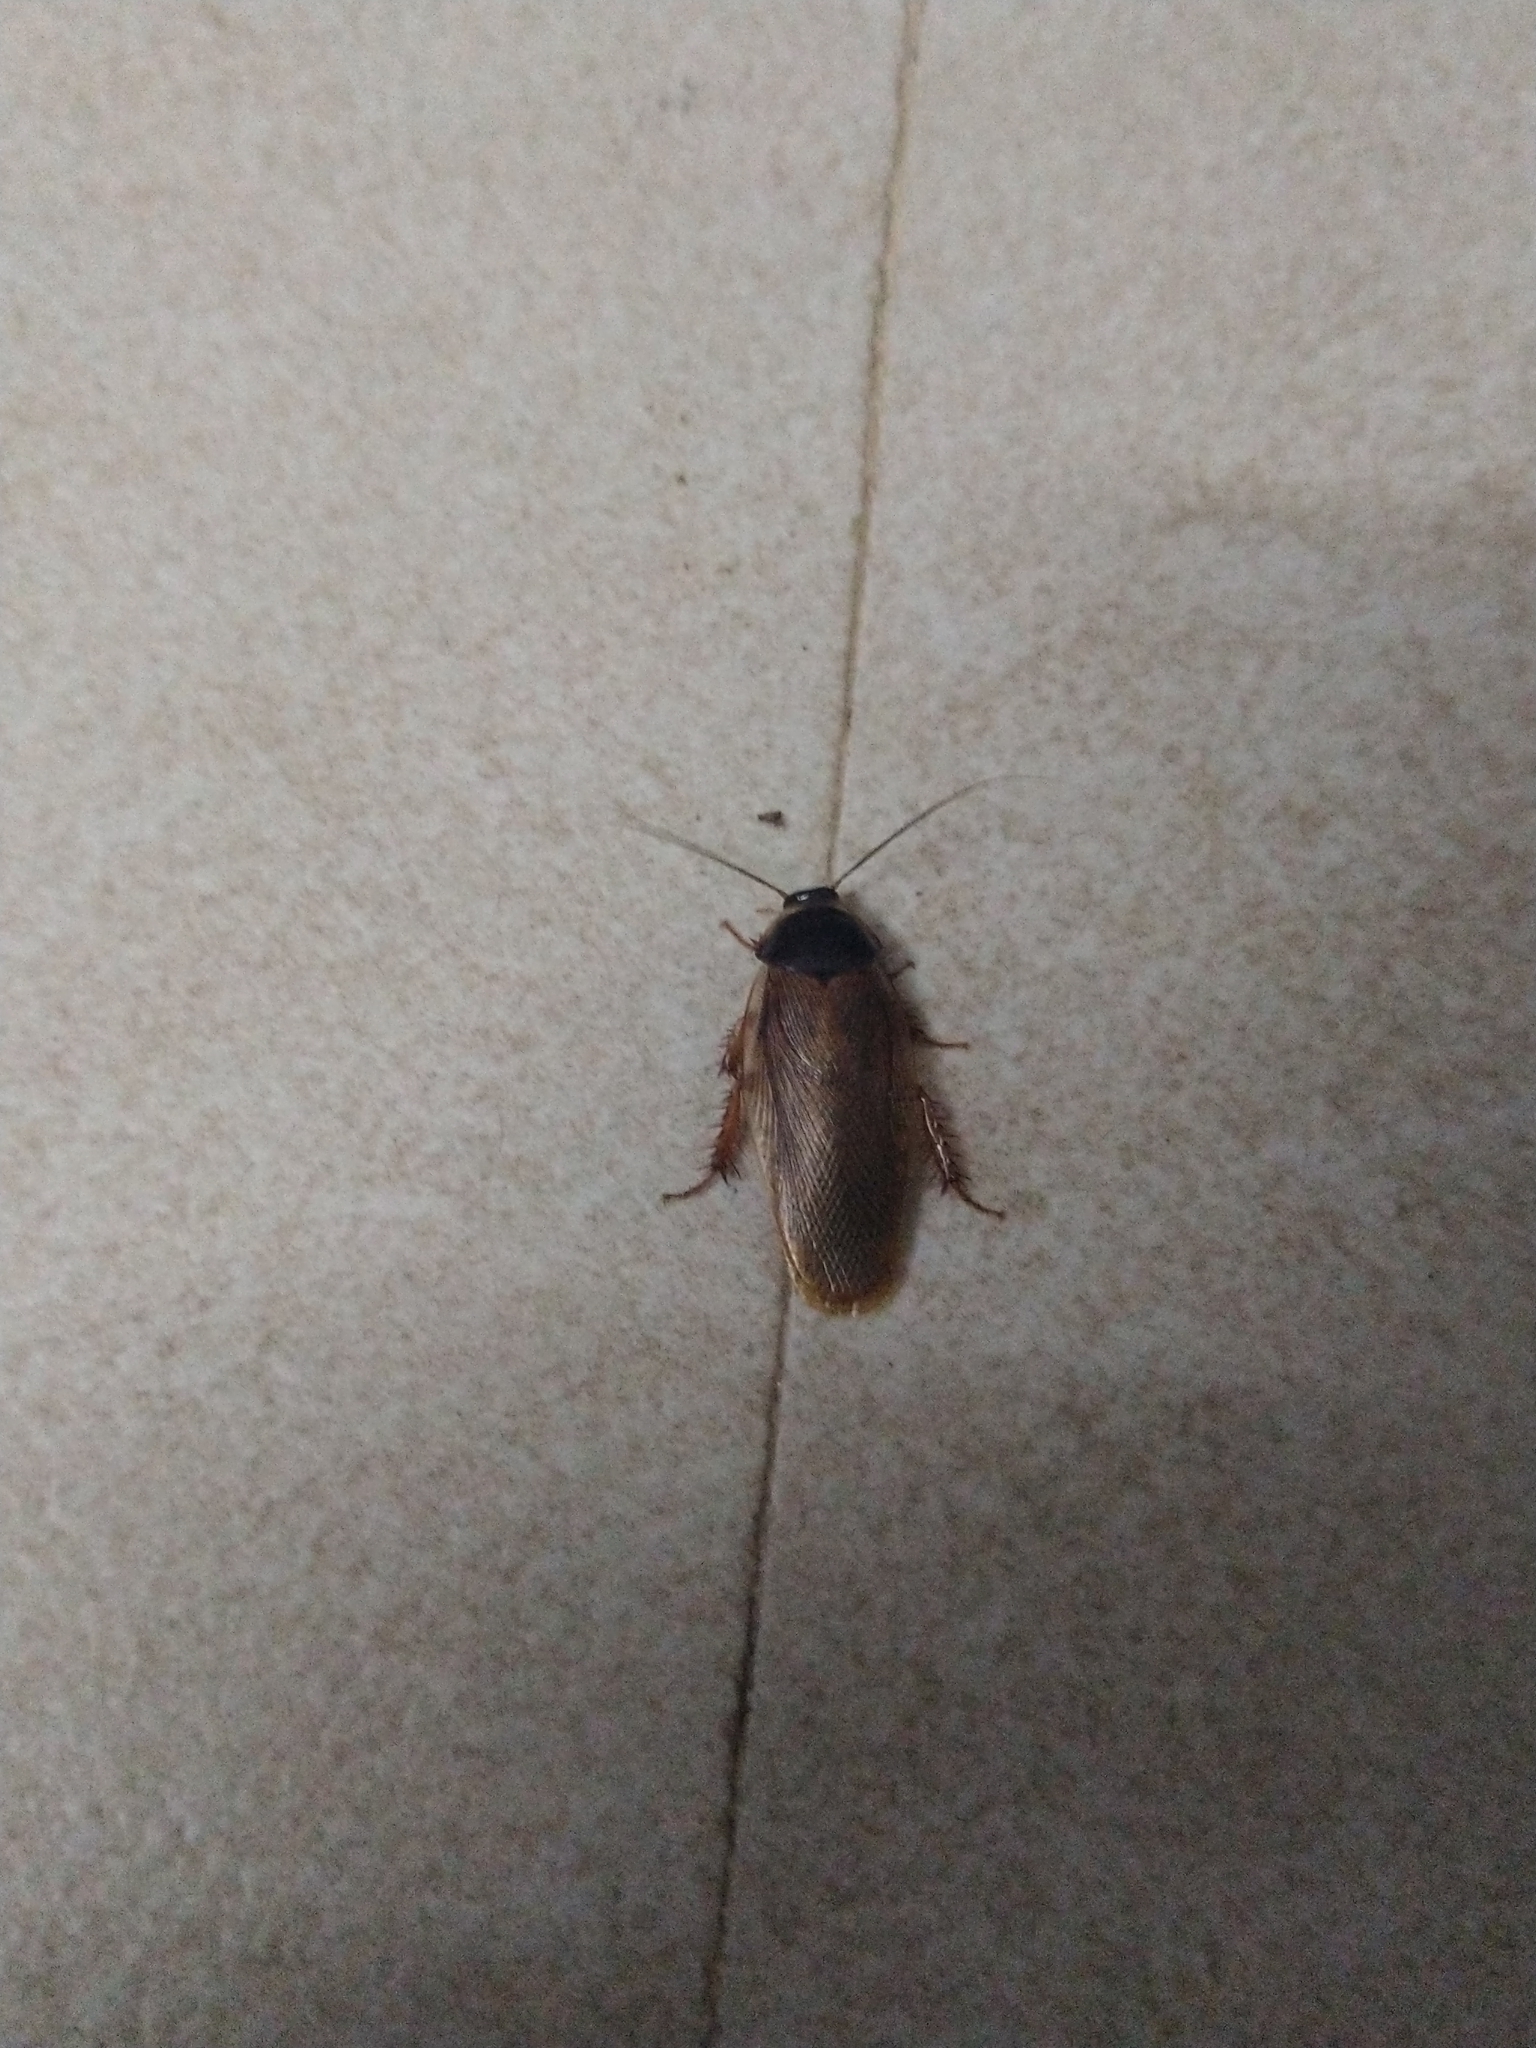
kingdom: Animalia
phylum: Arthropoda
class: Insecta
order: Blattodea
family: Blaberidae
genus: Pycnoscelus
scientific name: Pycnoscelus indicus
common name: Burrowing cockroach
